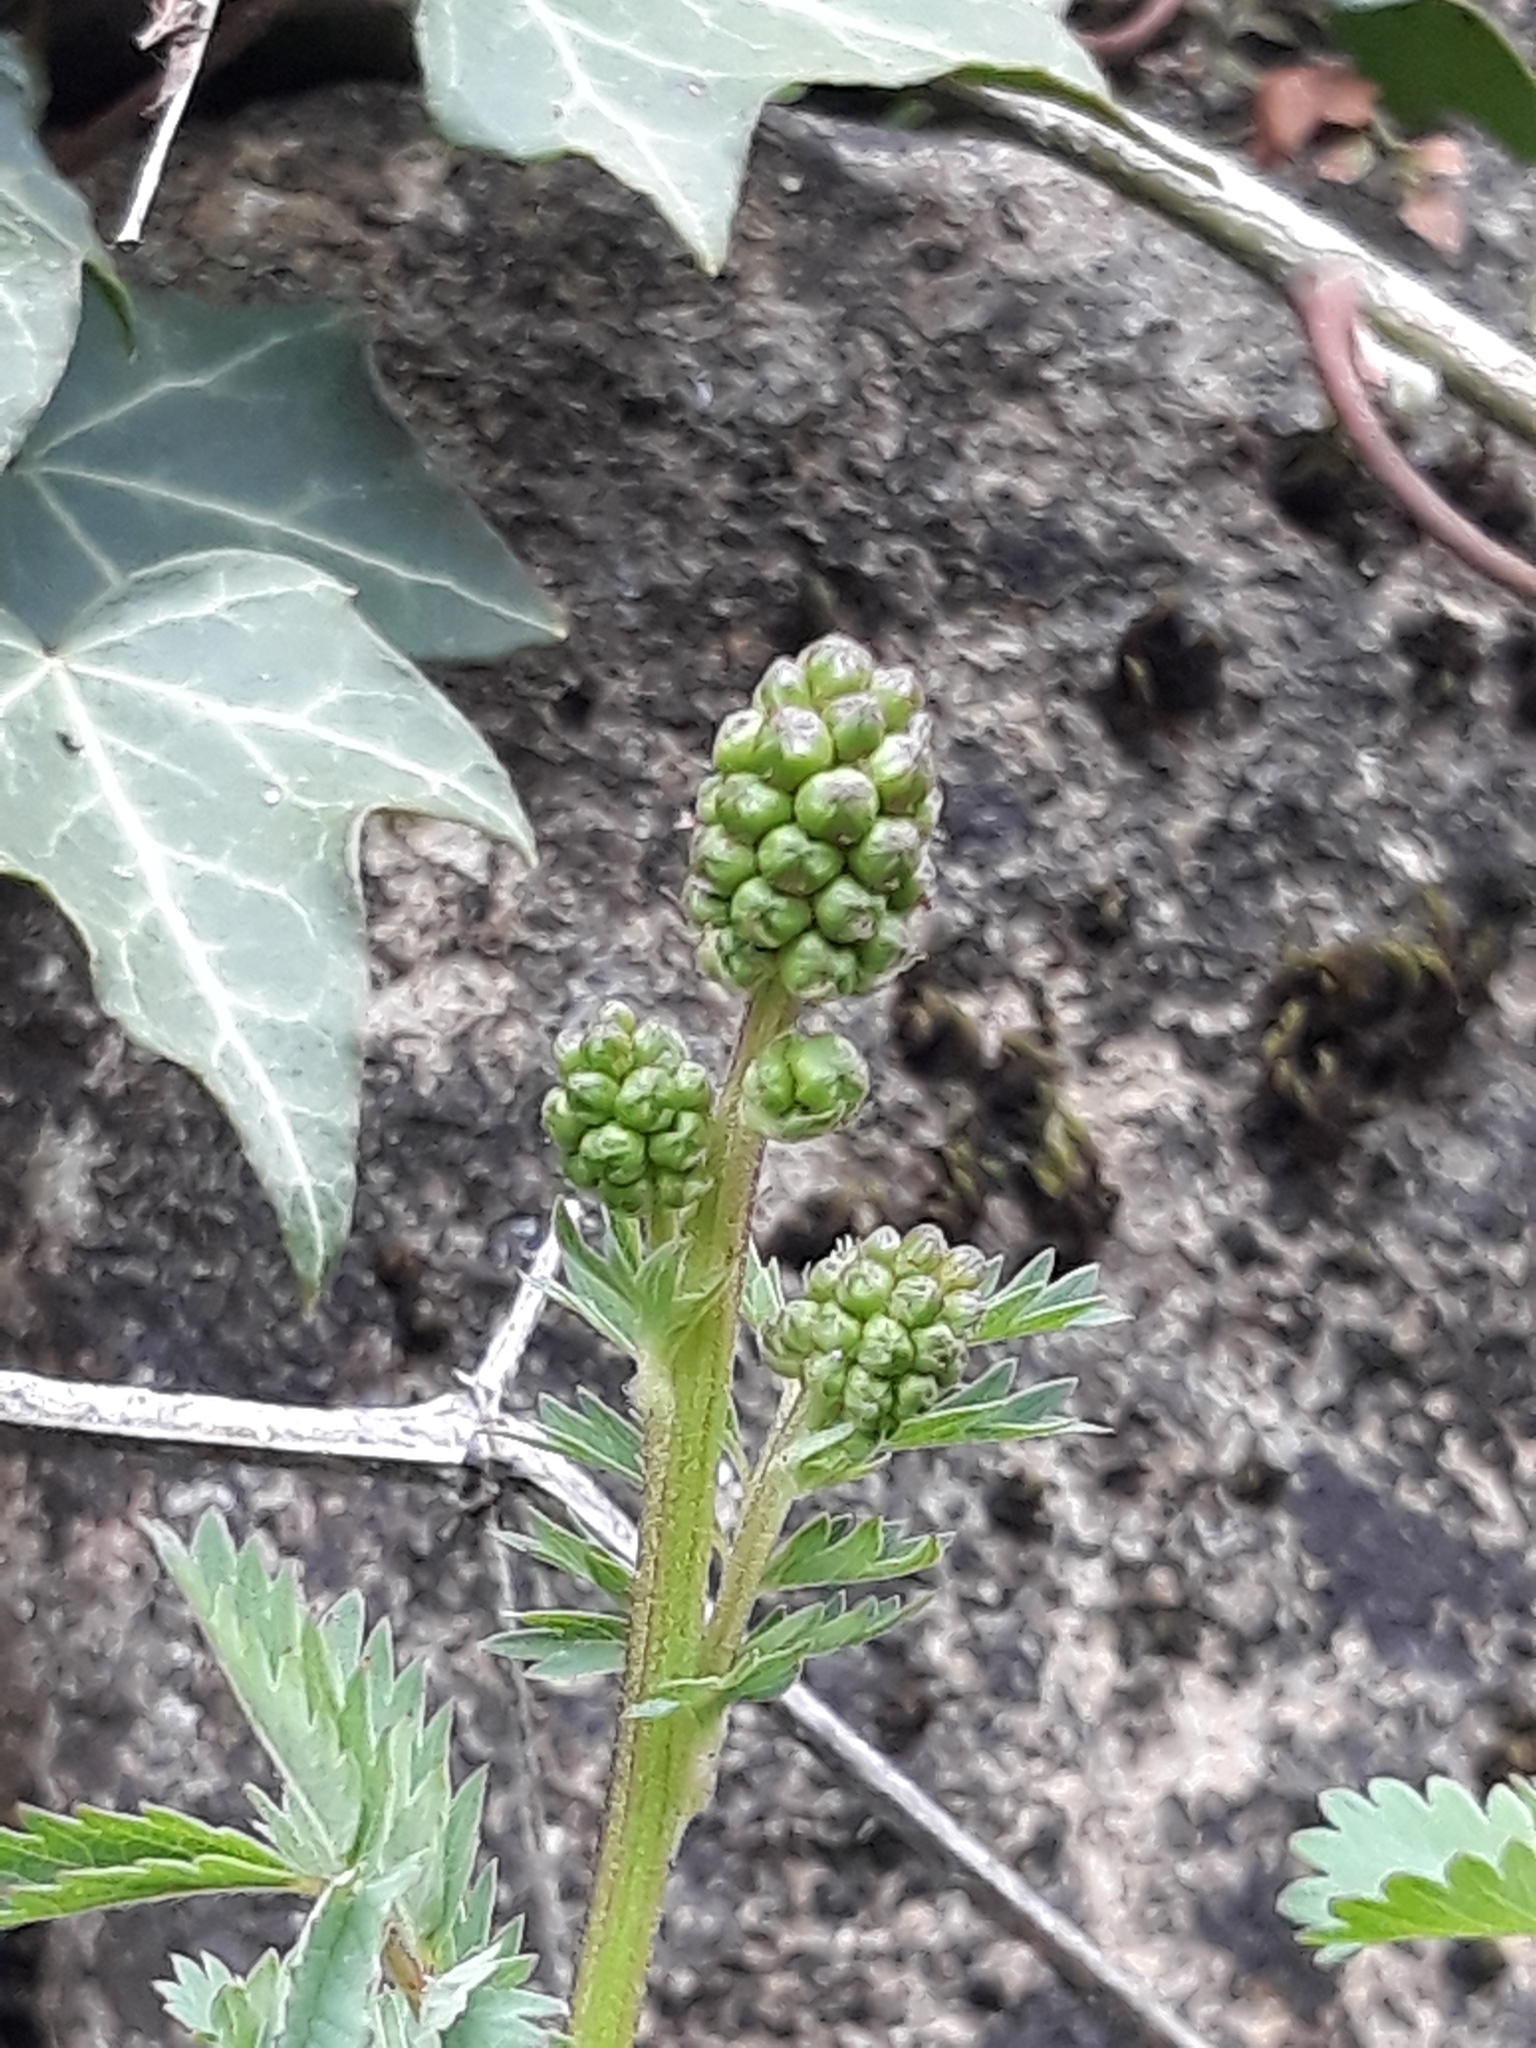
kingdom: Plantae
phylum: Tracheophyta
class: Magnoliopsida
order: Rosales
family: Rosaceae
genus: Poterium
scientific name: Poterium sanguisorba
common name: Salad burnet
